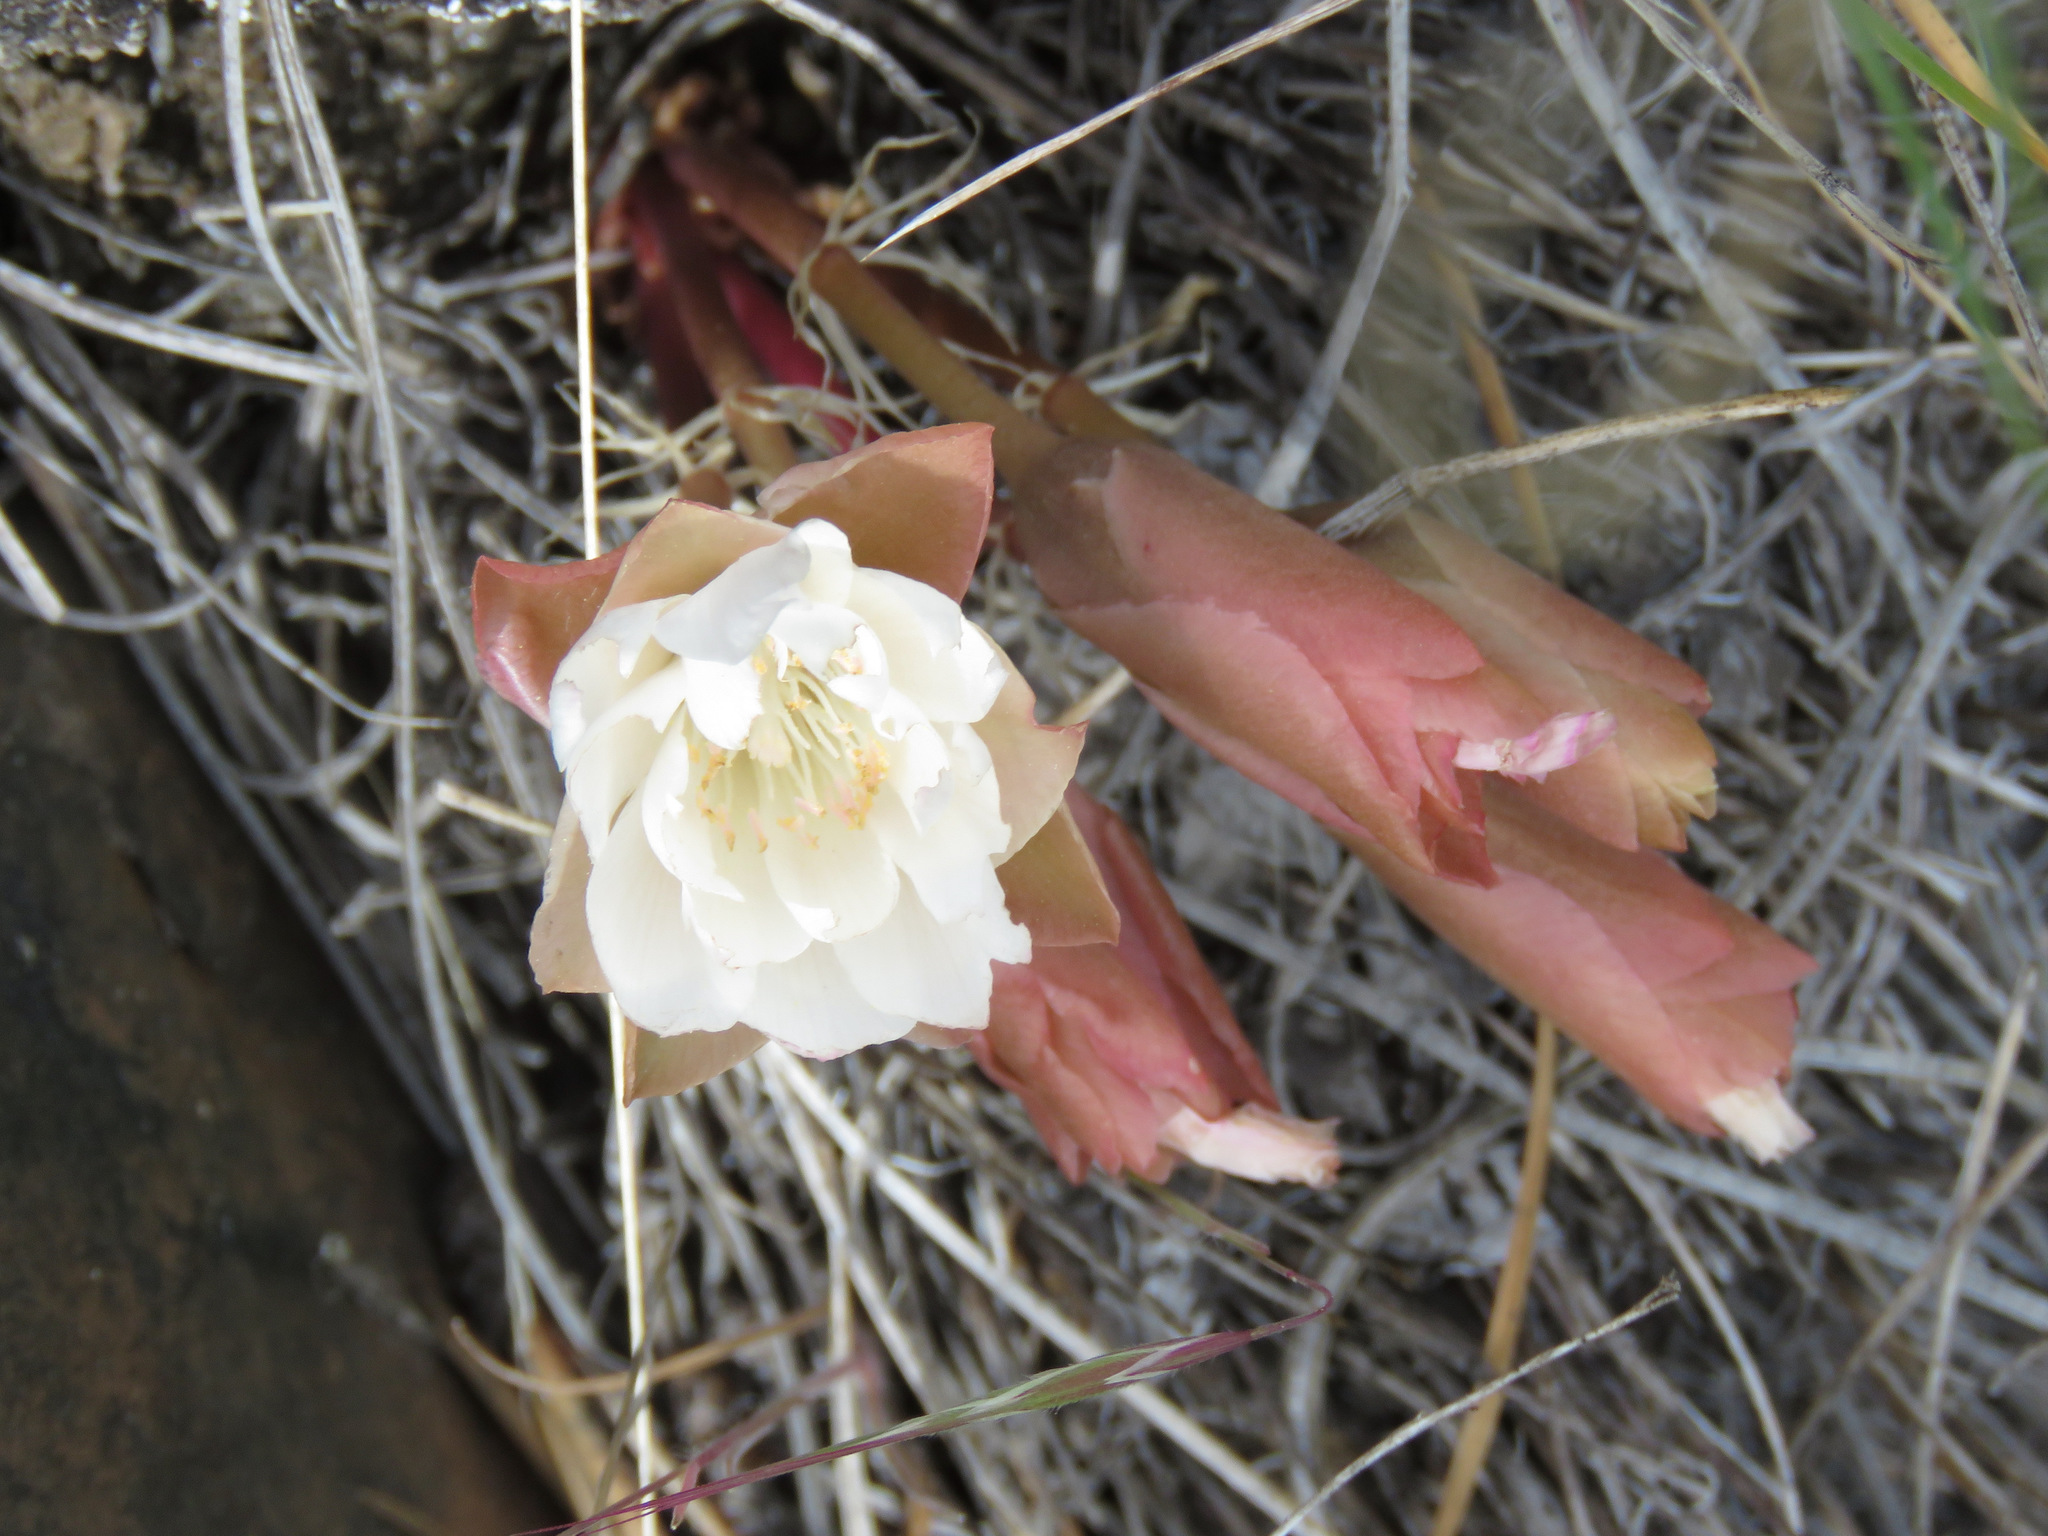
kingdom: Plantae
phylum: Tracheophyta
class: Magnoliopsida
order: Caryophyllales
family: Montiaceae
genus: Lewisia
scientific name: Lewisia rediviva
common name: Bitter-root
